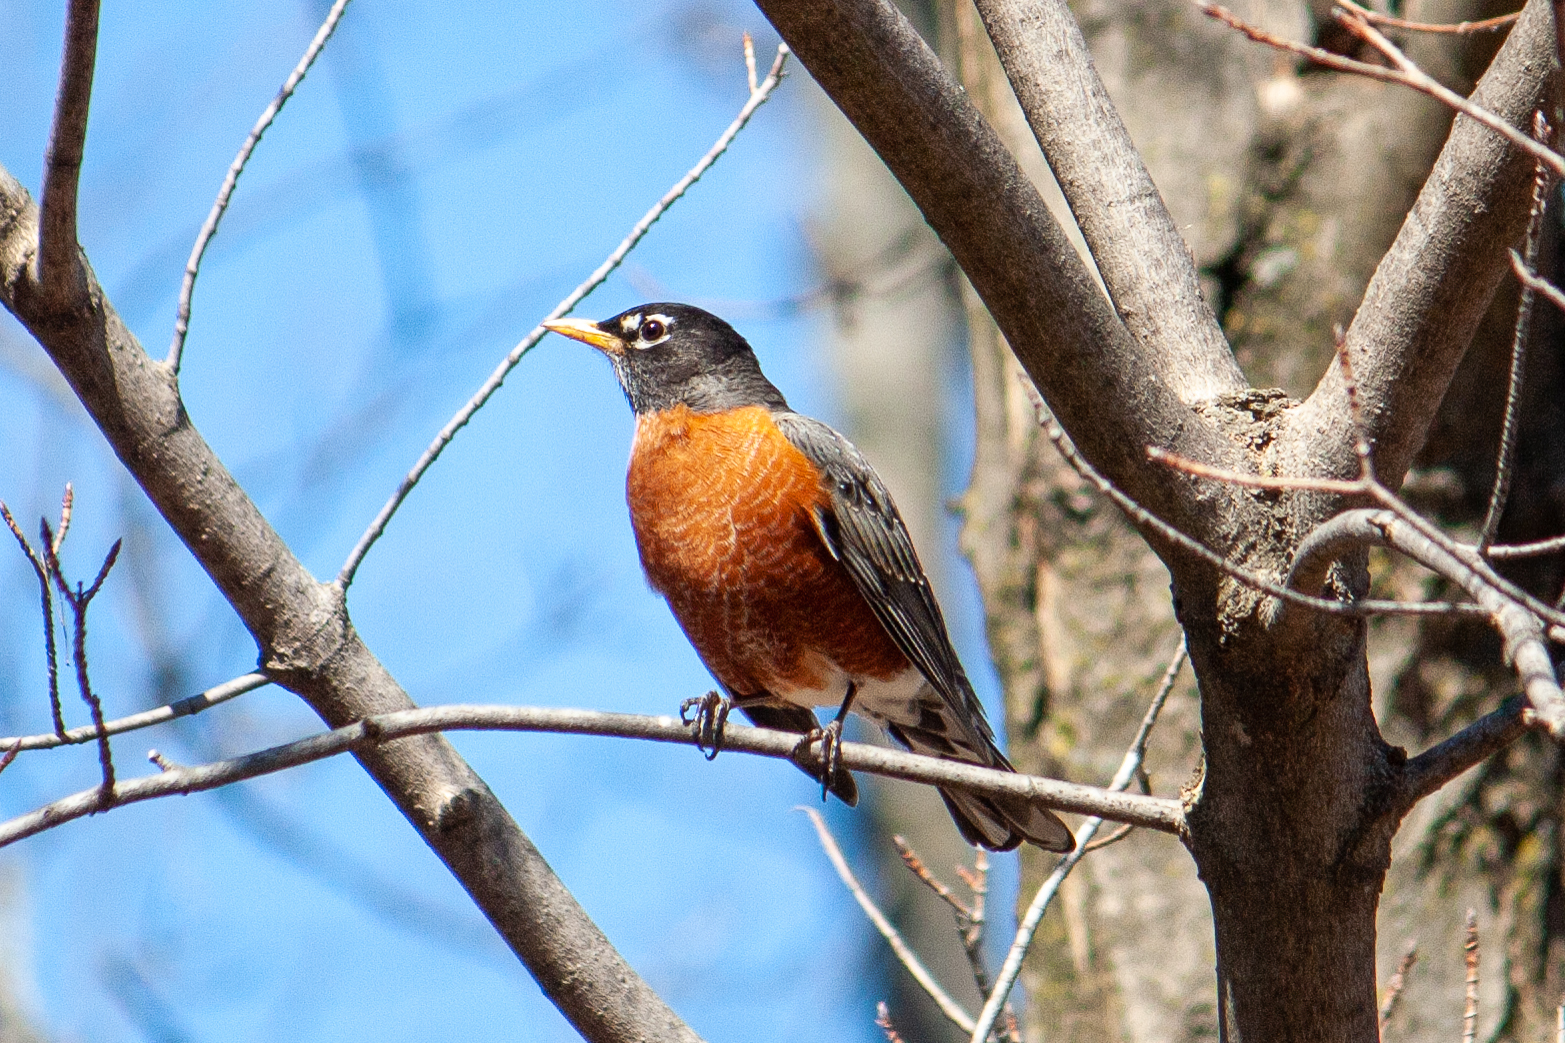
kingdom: Animalia
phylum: Chordata
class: Aves
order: Passeriformes
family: Turdidae
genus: Turdus
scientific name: Turdus migratorius
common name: American robin
